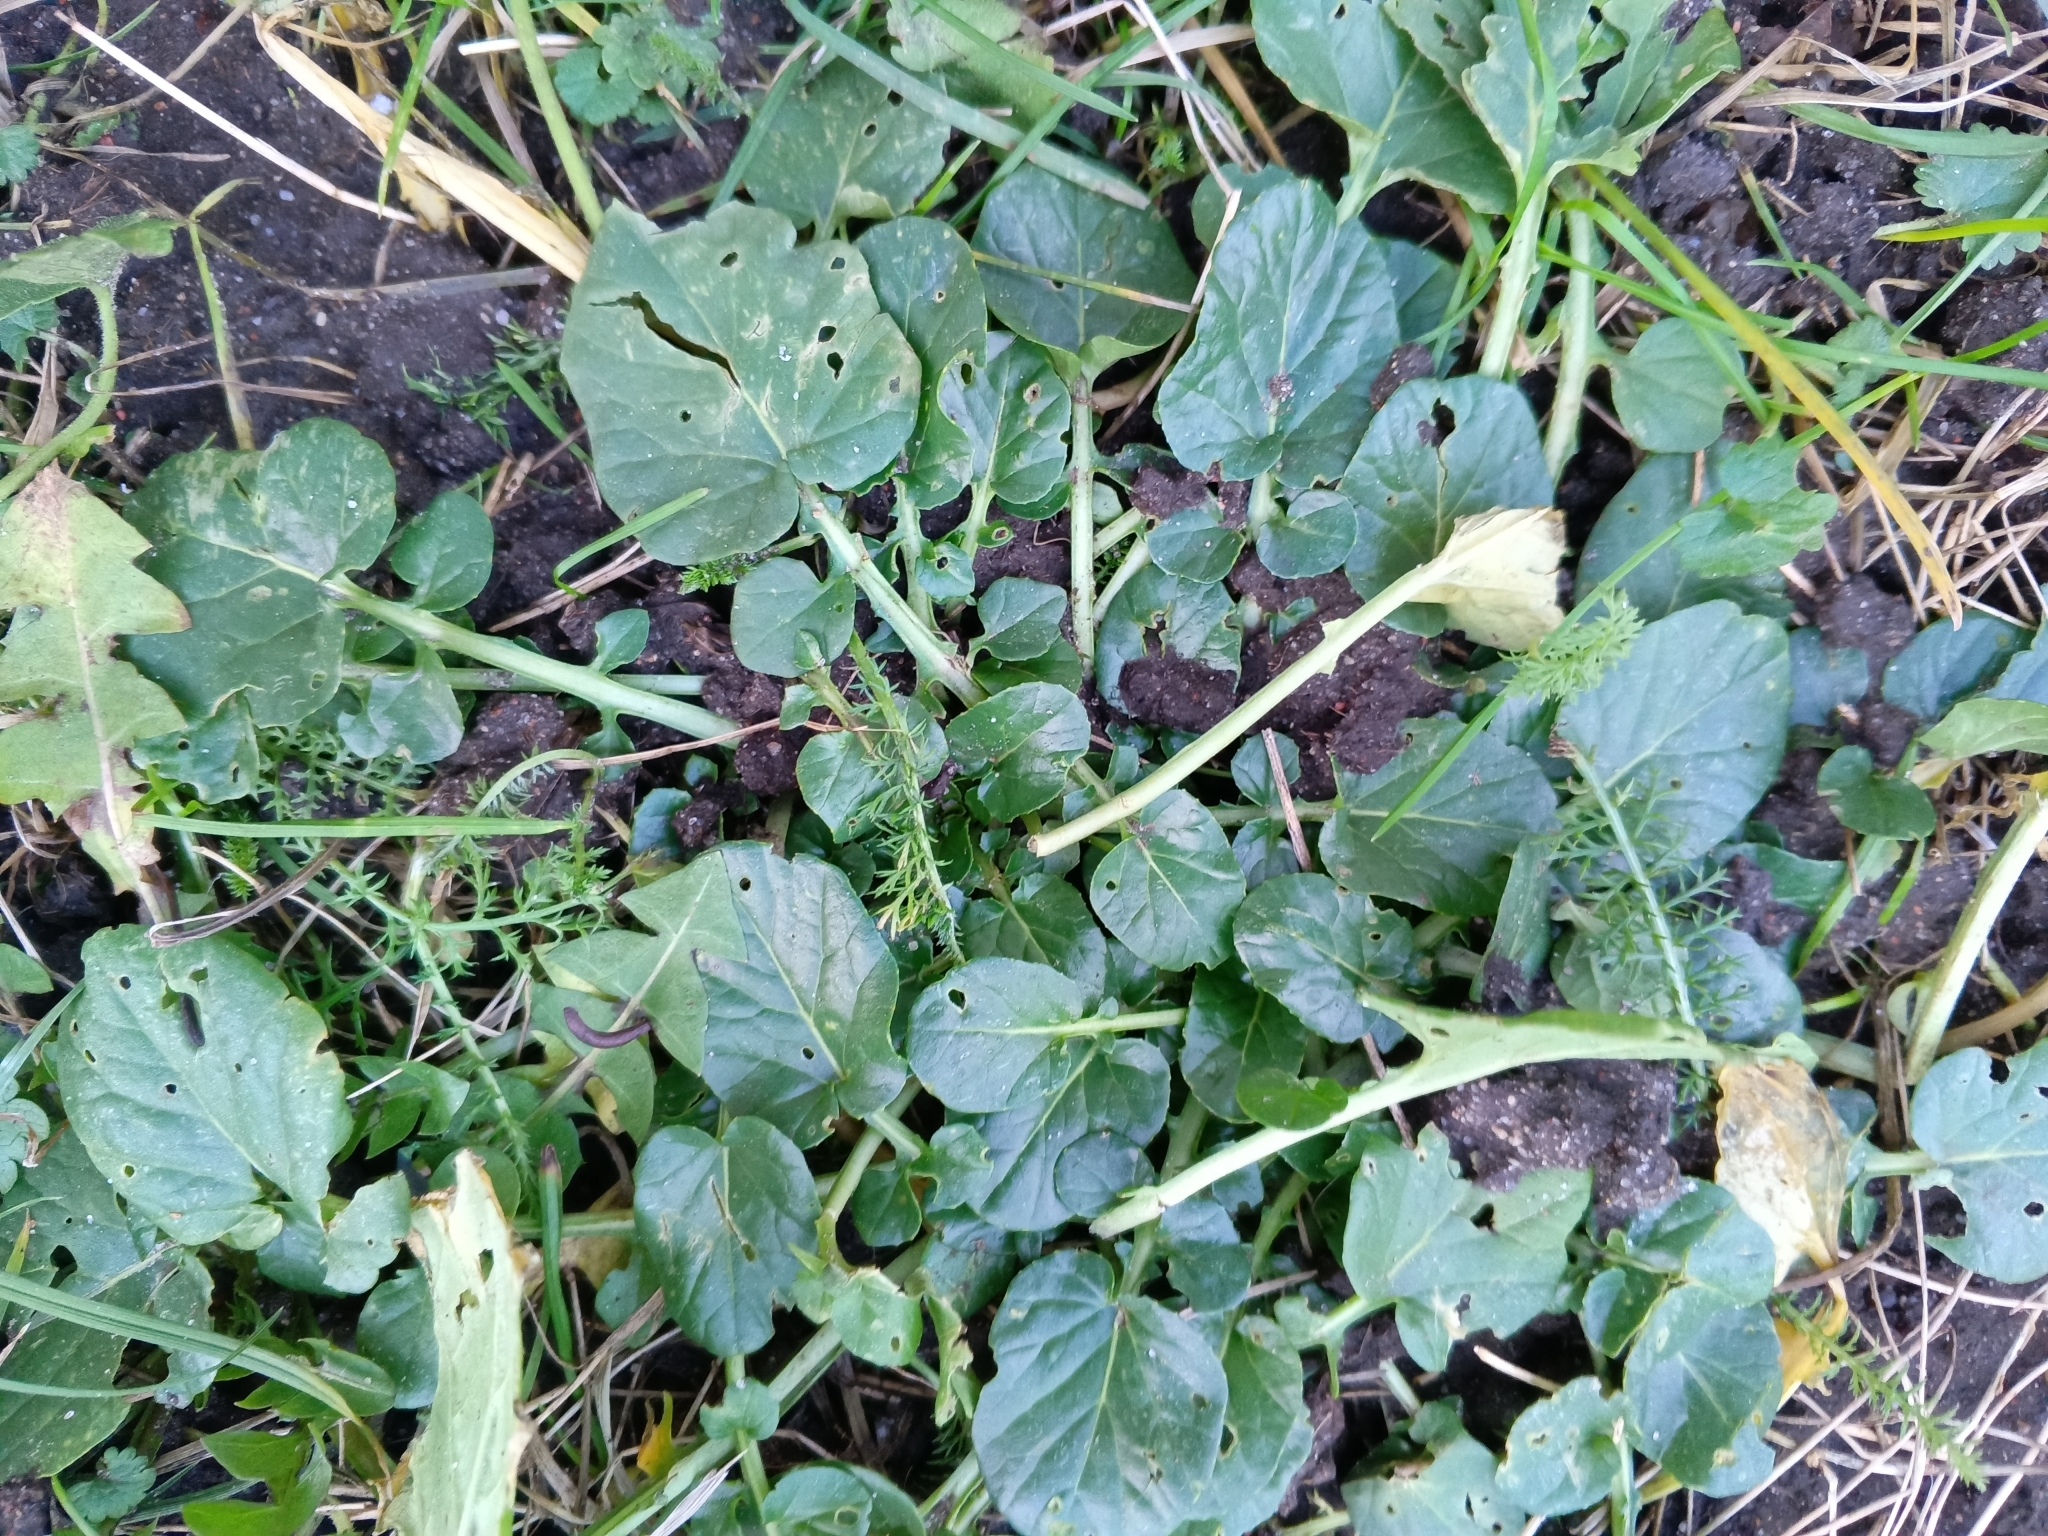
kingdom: Plantae
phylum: Tracheophyta
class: Magnoliopsida
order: Brassicales
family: Brassicaceae
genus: Barbarea
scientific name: Barbarea vulgaris
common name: Cressy-greens
